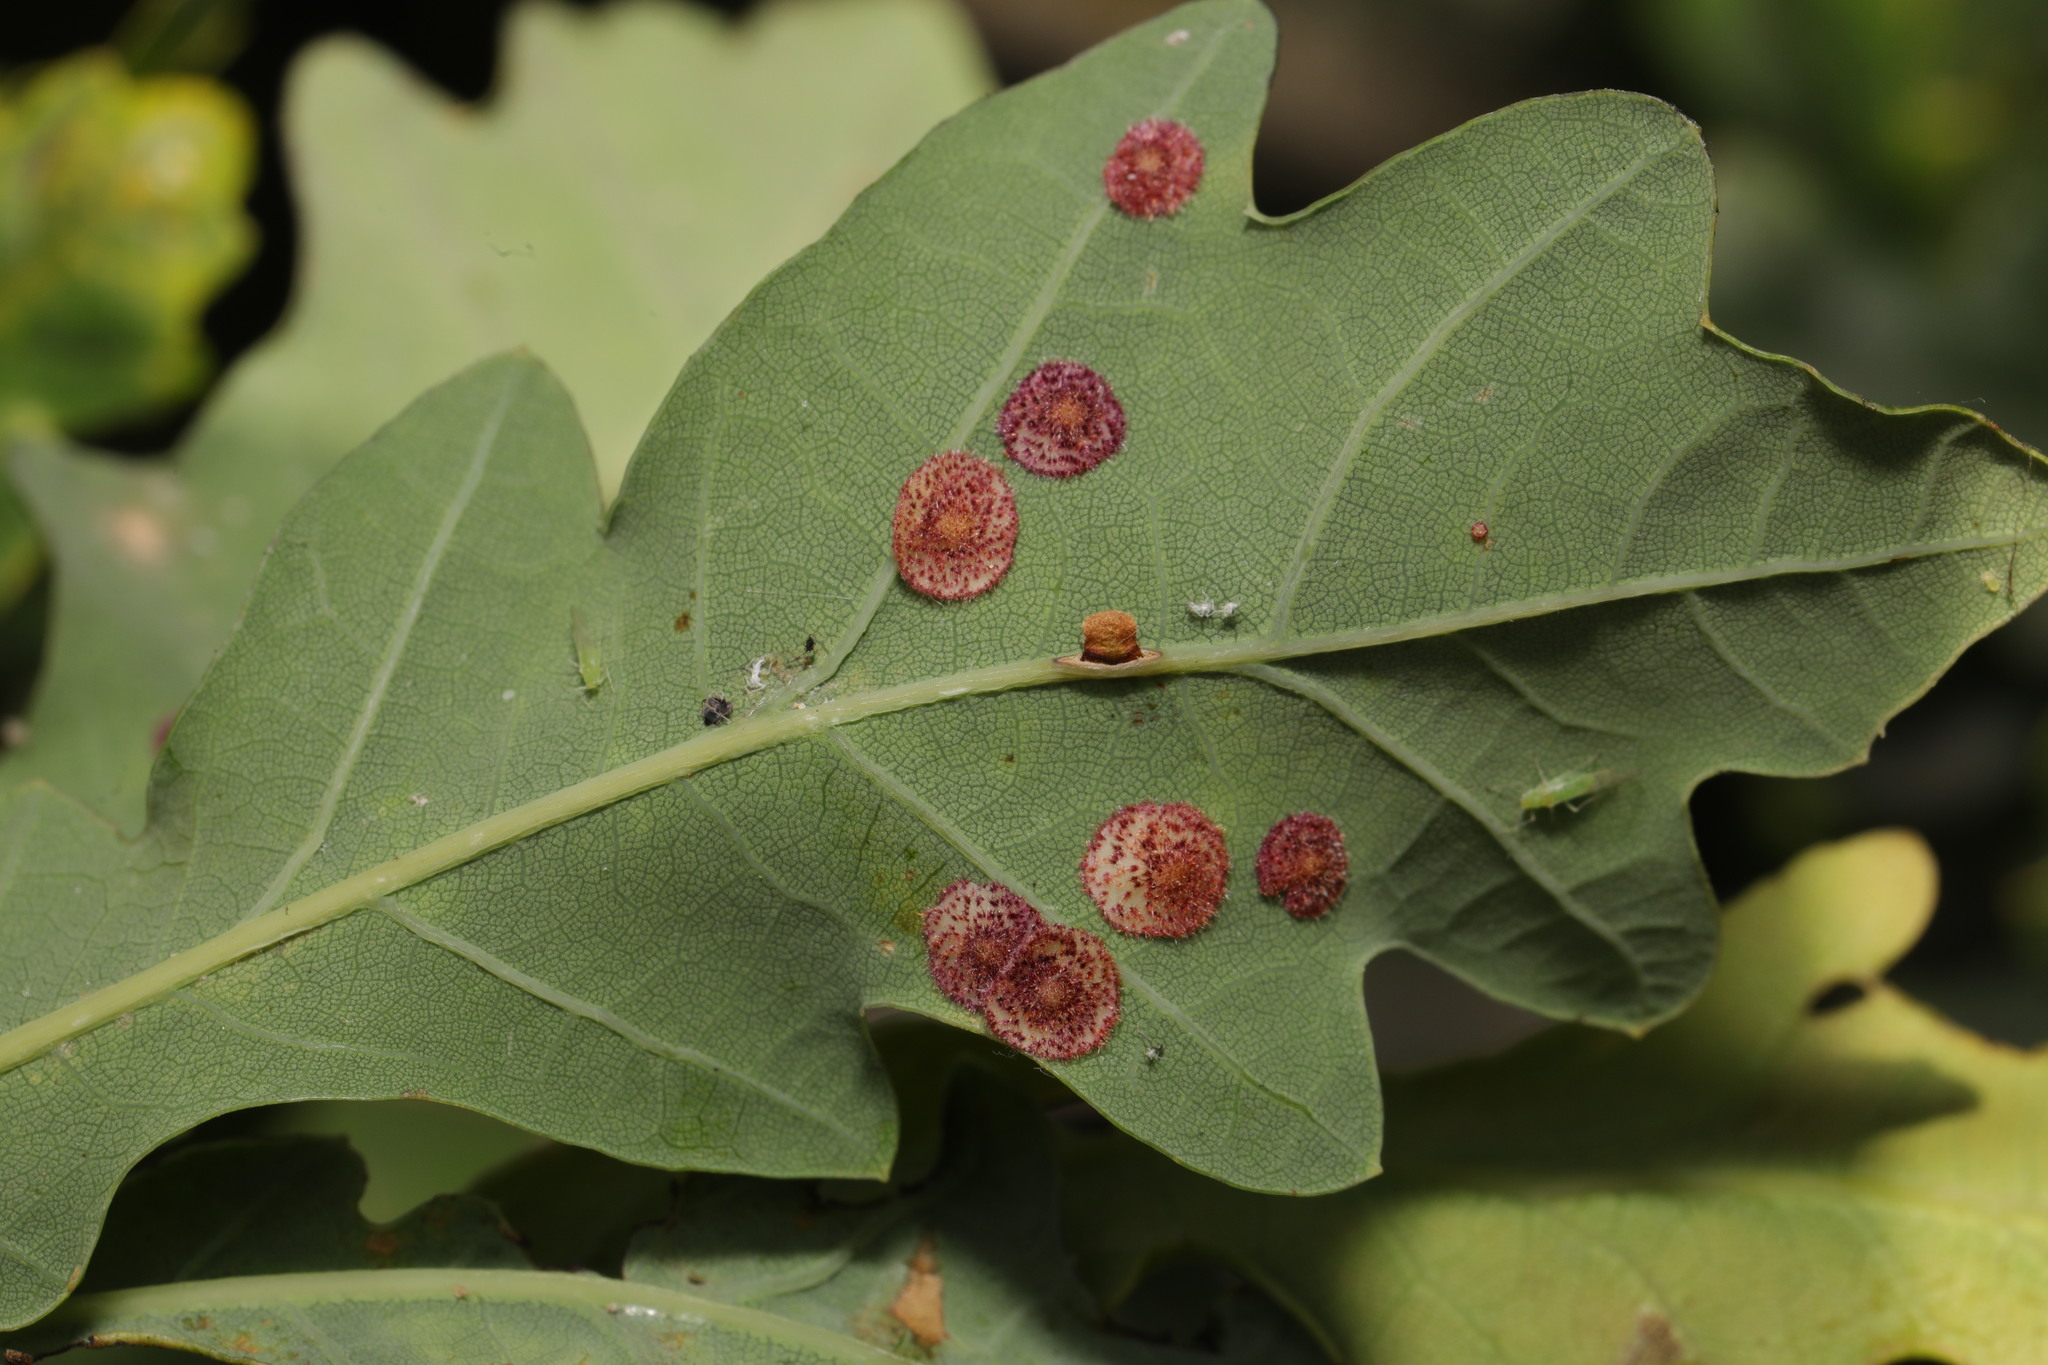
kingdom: Animalia
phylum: Arthropoda
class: Insecta
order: Hymenoptera
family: Cynipidae
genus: Neuroterus
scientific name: Neuroterus quercusbaccarum
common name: Common spangle gall
